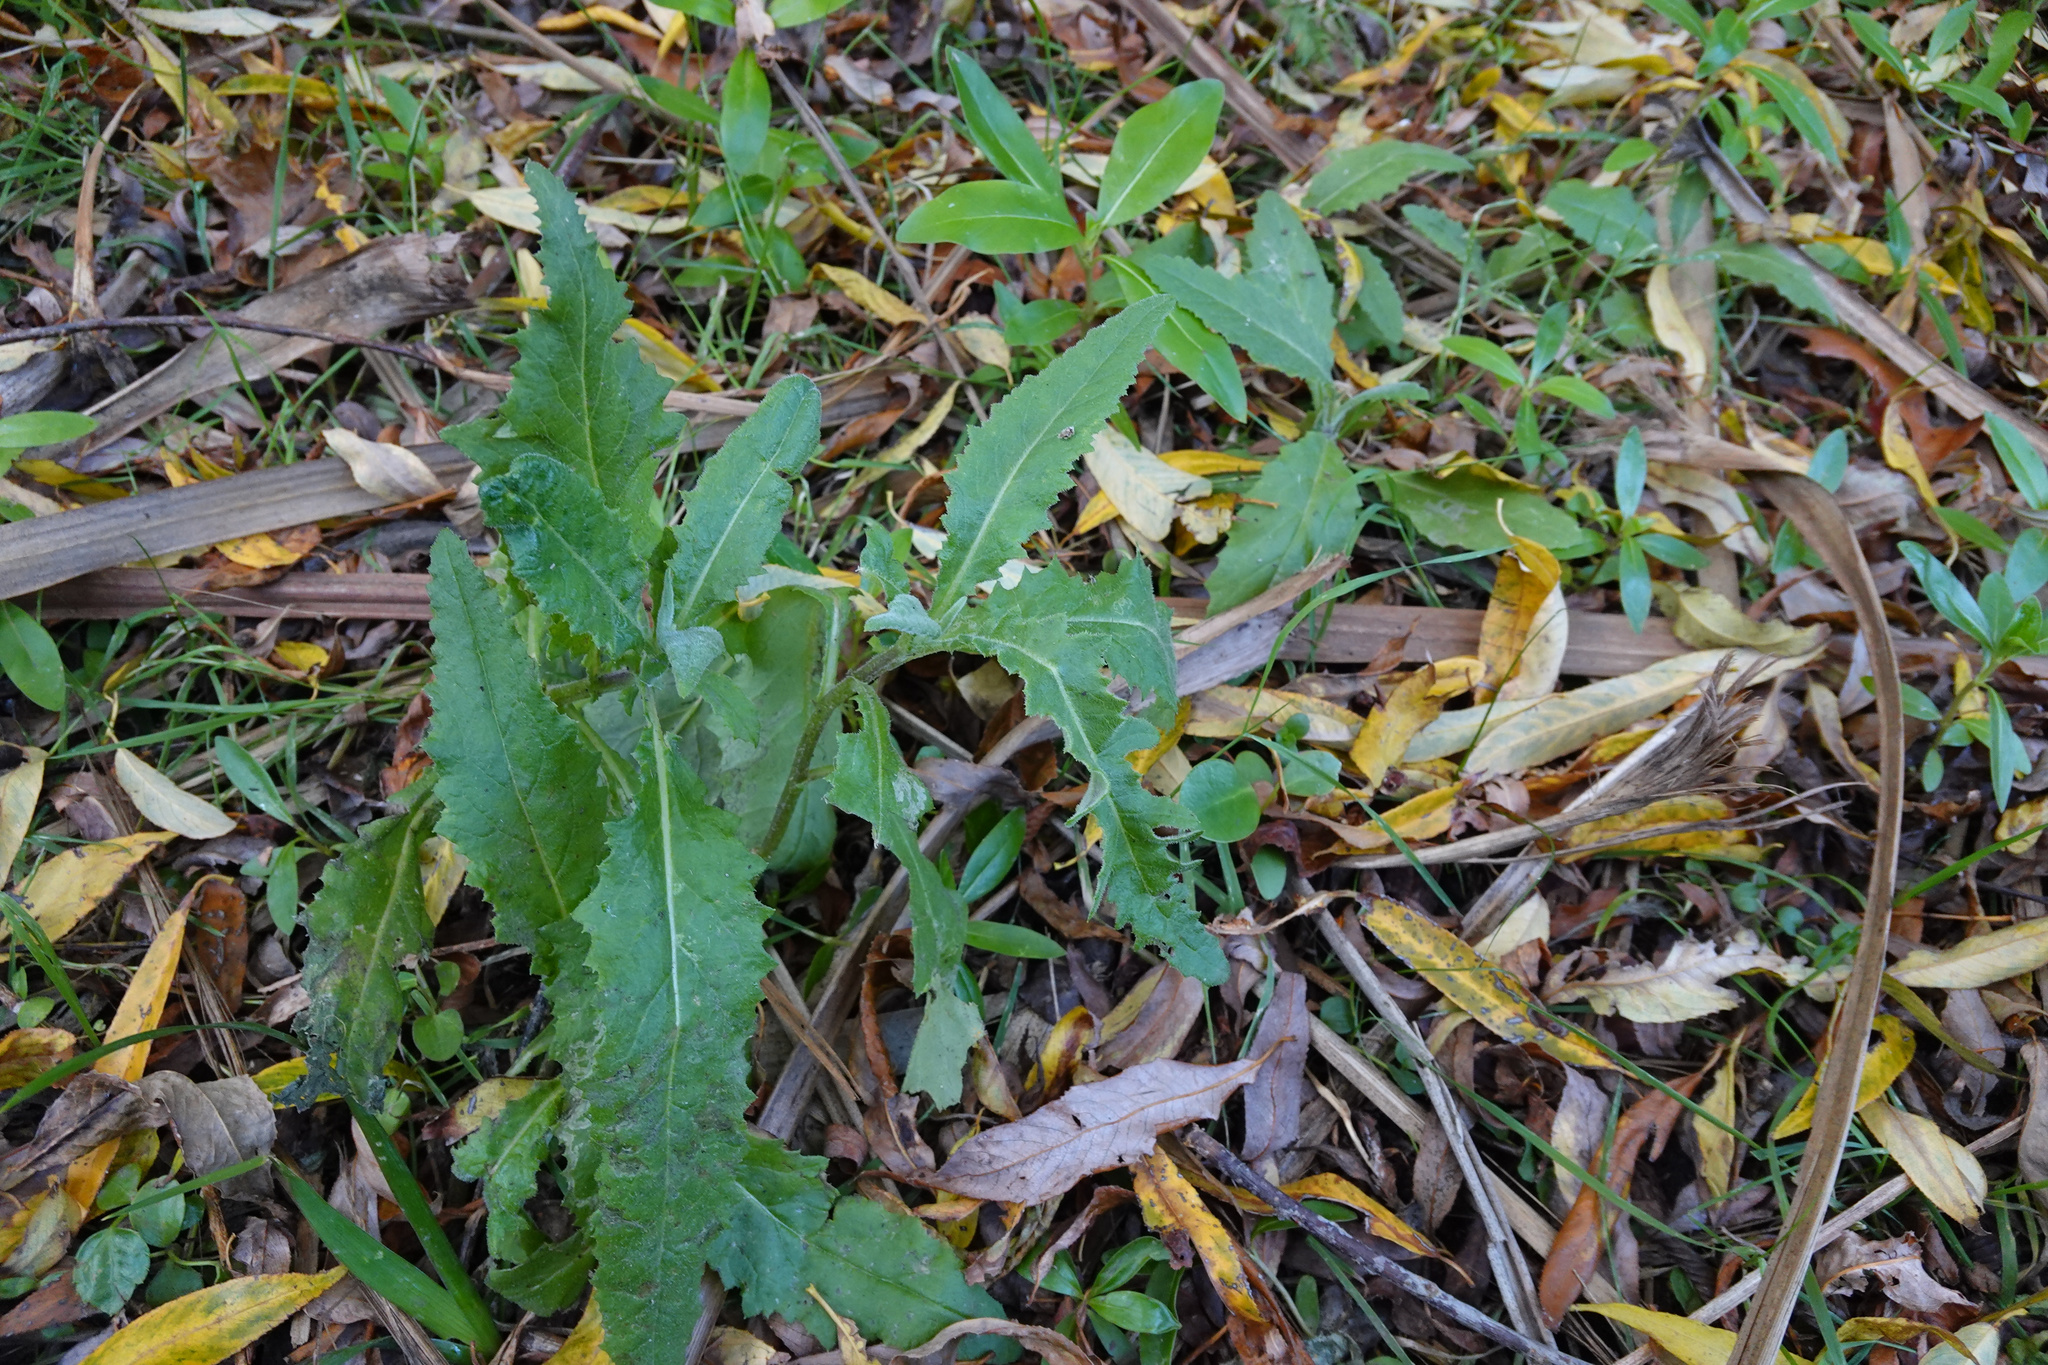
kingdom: Plantae
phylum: Tracheophyta
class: Magnoliopsida
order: Asterales
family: Asteraceae
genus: Senecio
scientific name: Senecio minimus
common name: Toothed fireweed
